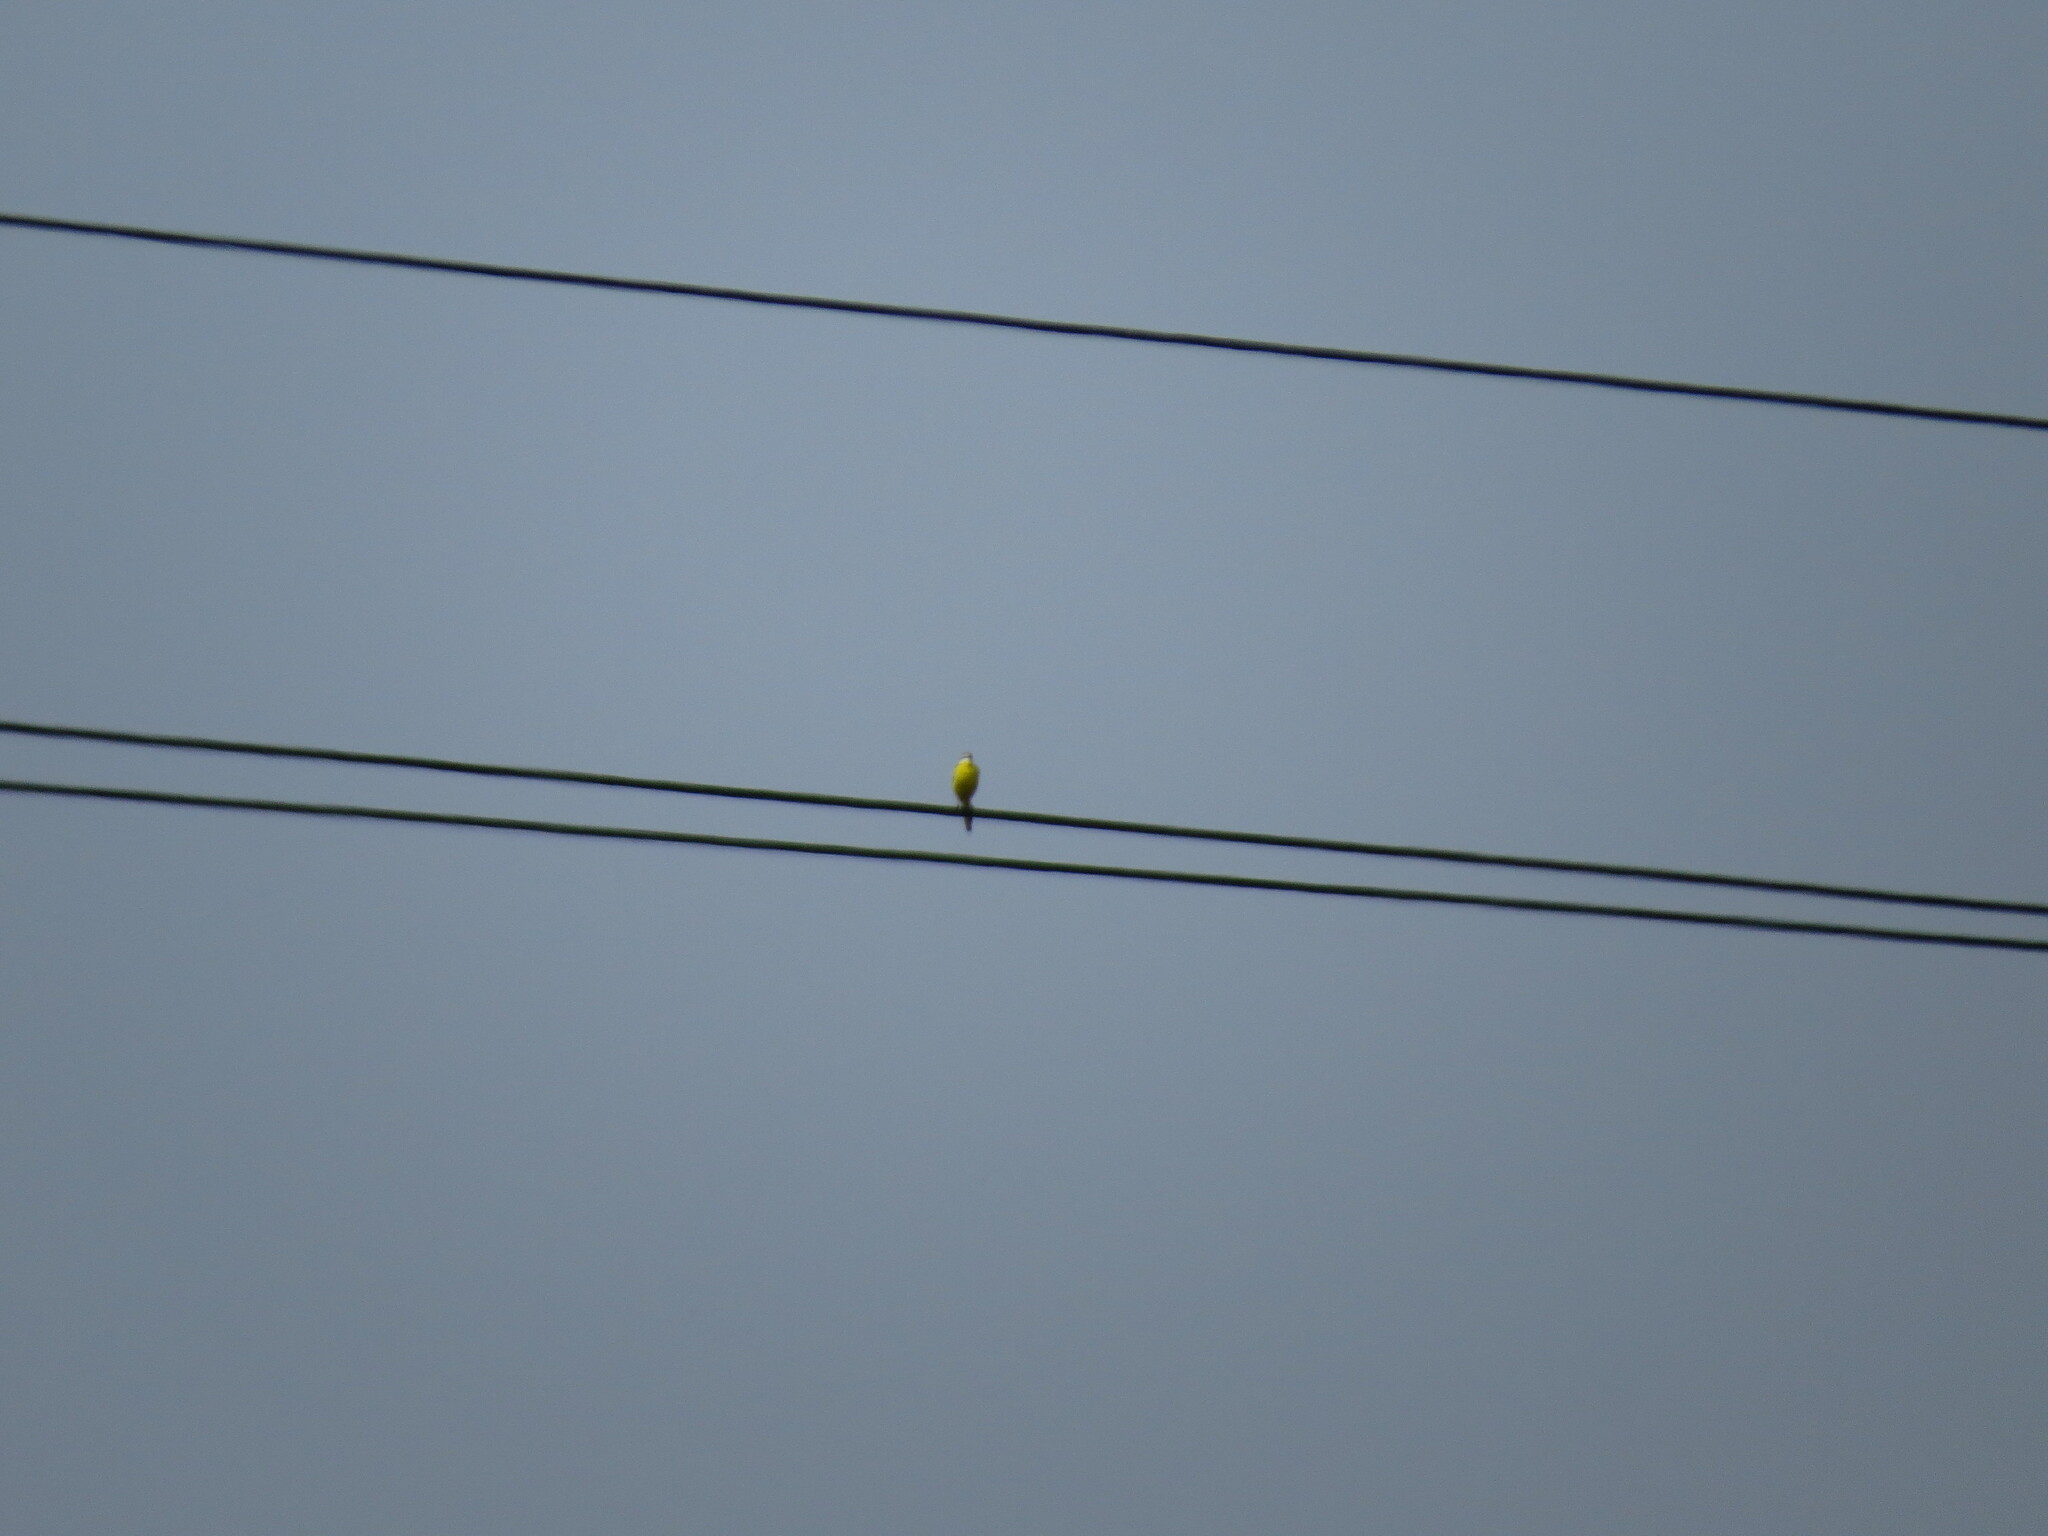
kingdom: Animalia
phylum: Chordata
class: Aves
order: Passeriformes
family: Motacillidae
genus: Motacilla
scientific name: Motacilla flava
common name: Western yellow wagtail
